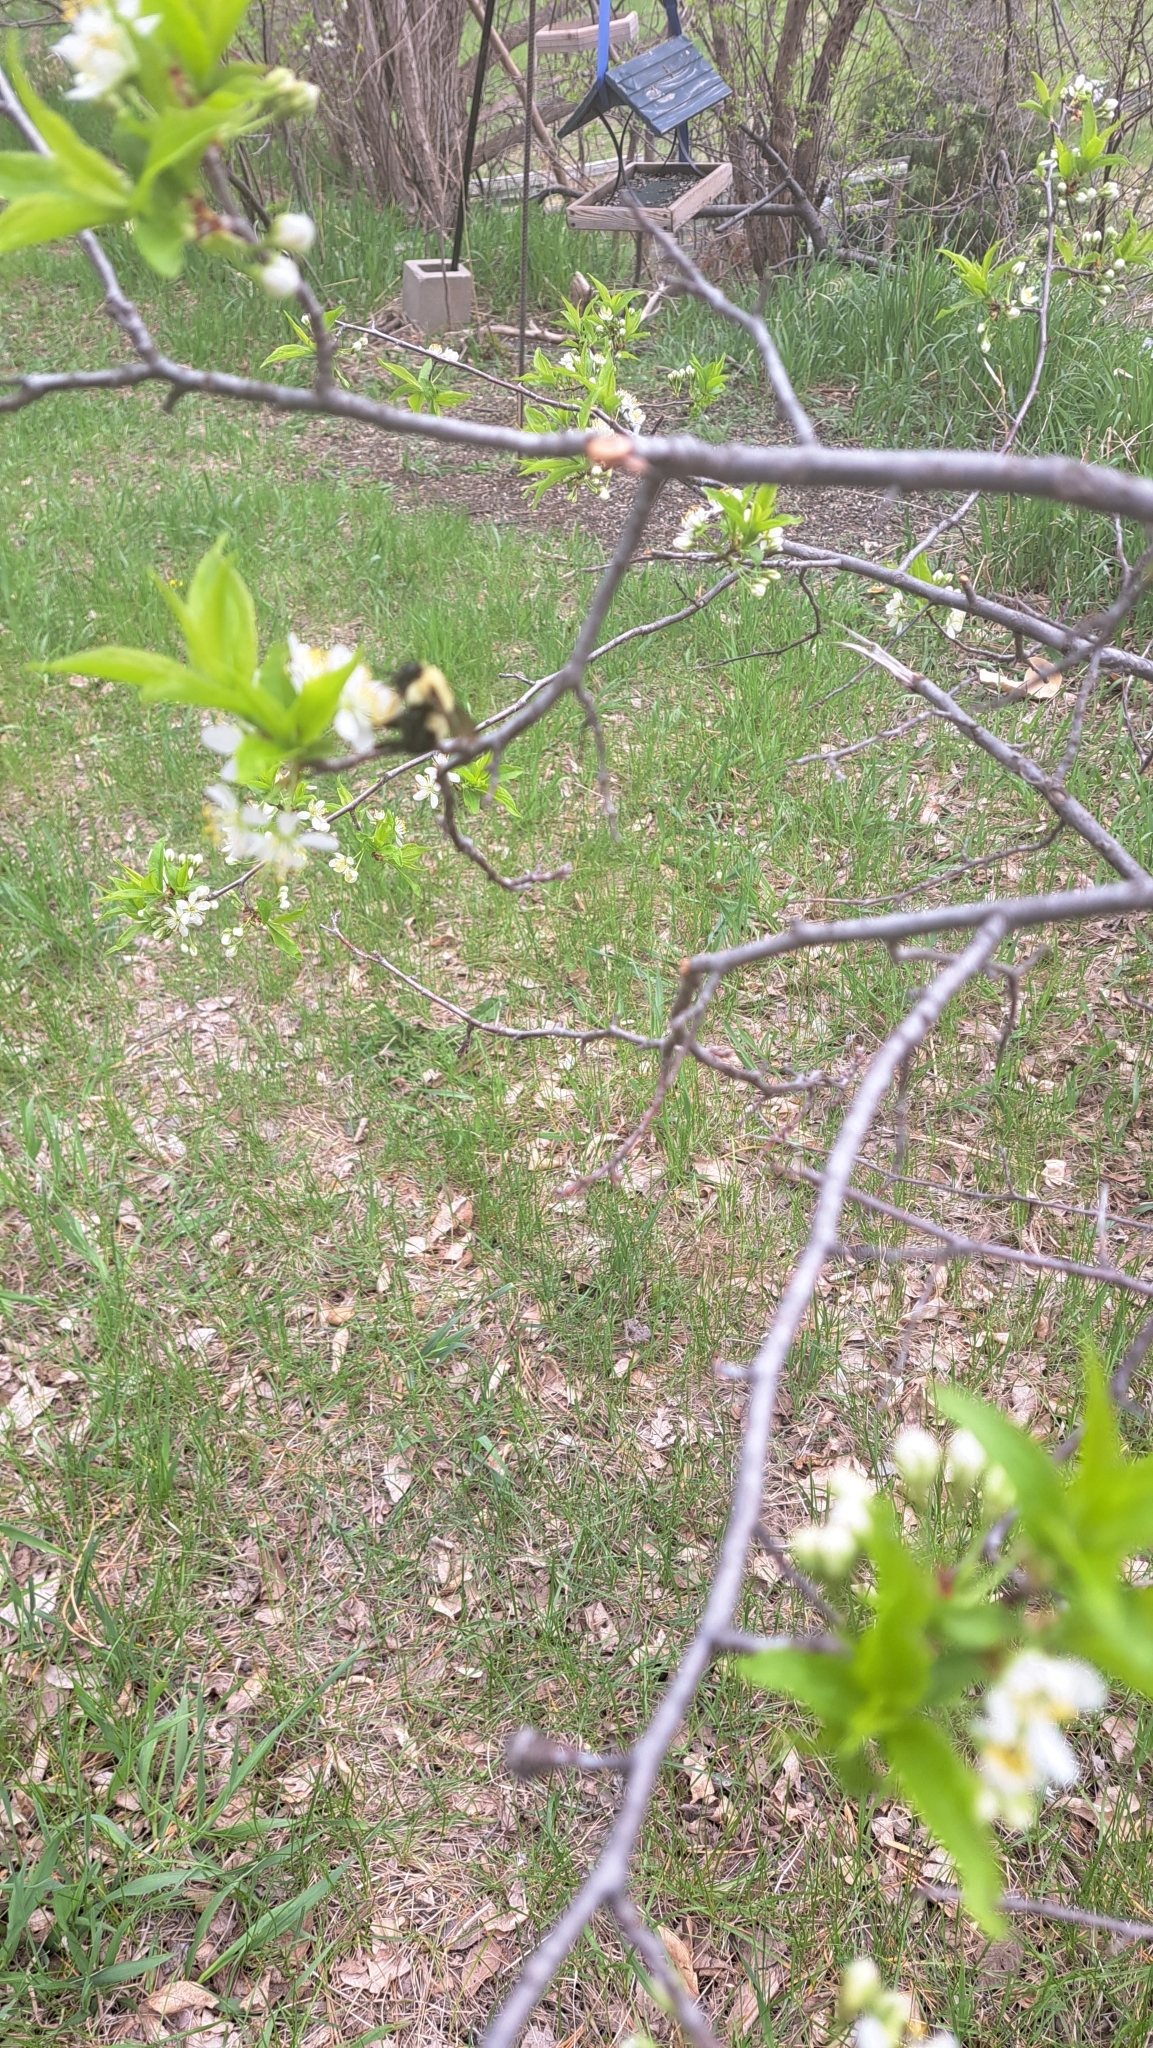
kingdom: Animalia
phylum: Arthropoda
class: Insecta
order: Hymenoptera
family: Apidae
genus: Bombus
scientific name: Bombus bimaculatus
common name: Two-spotted bumble bee
